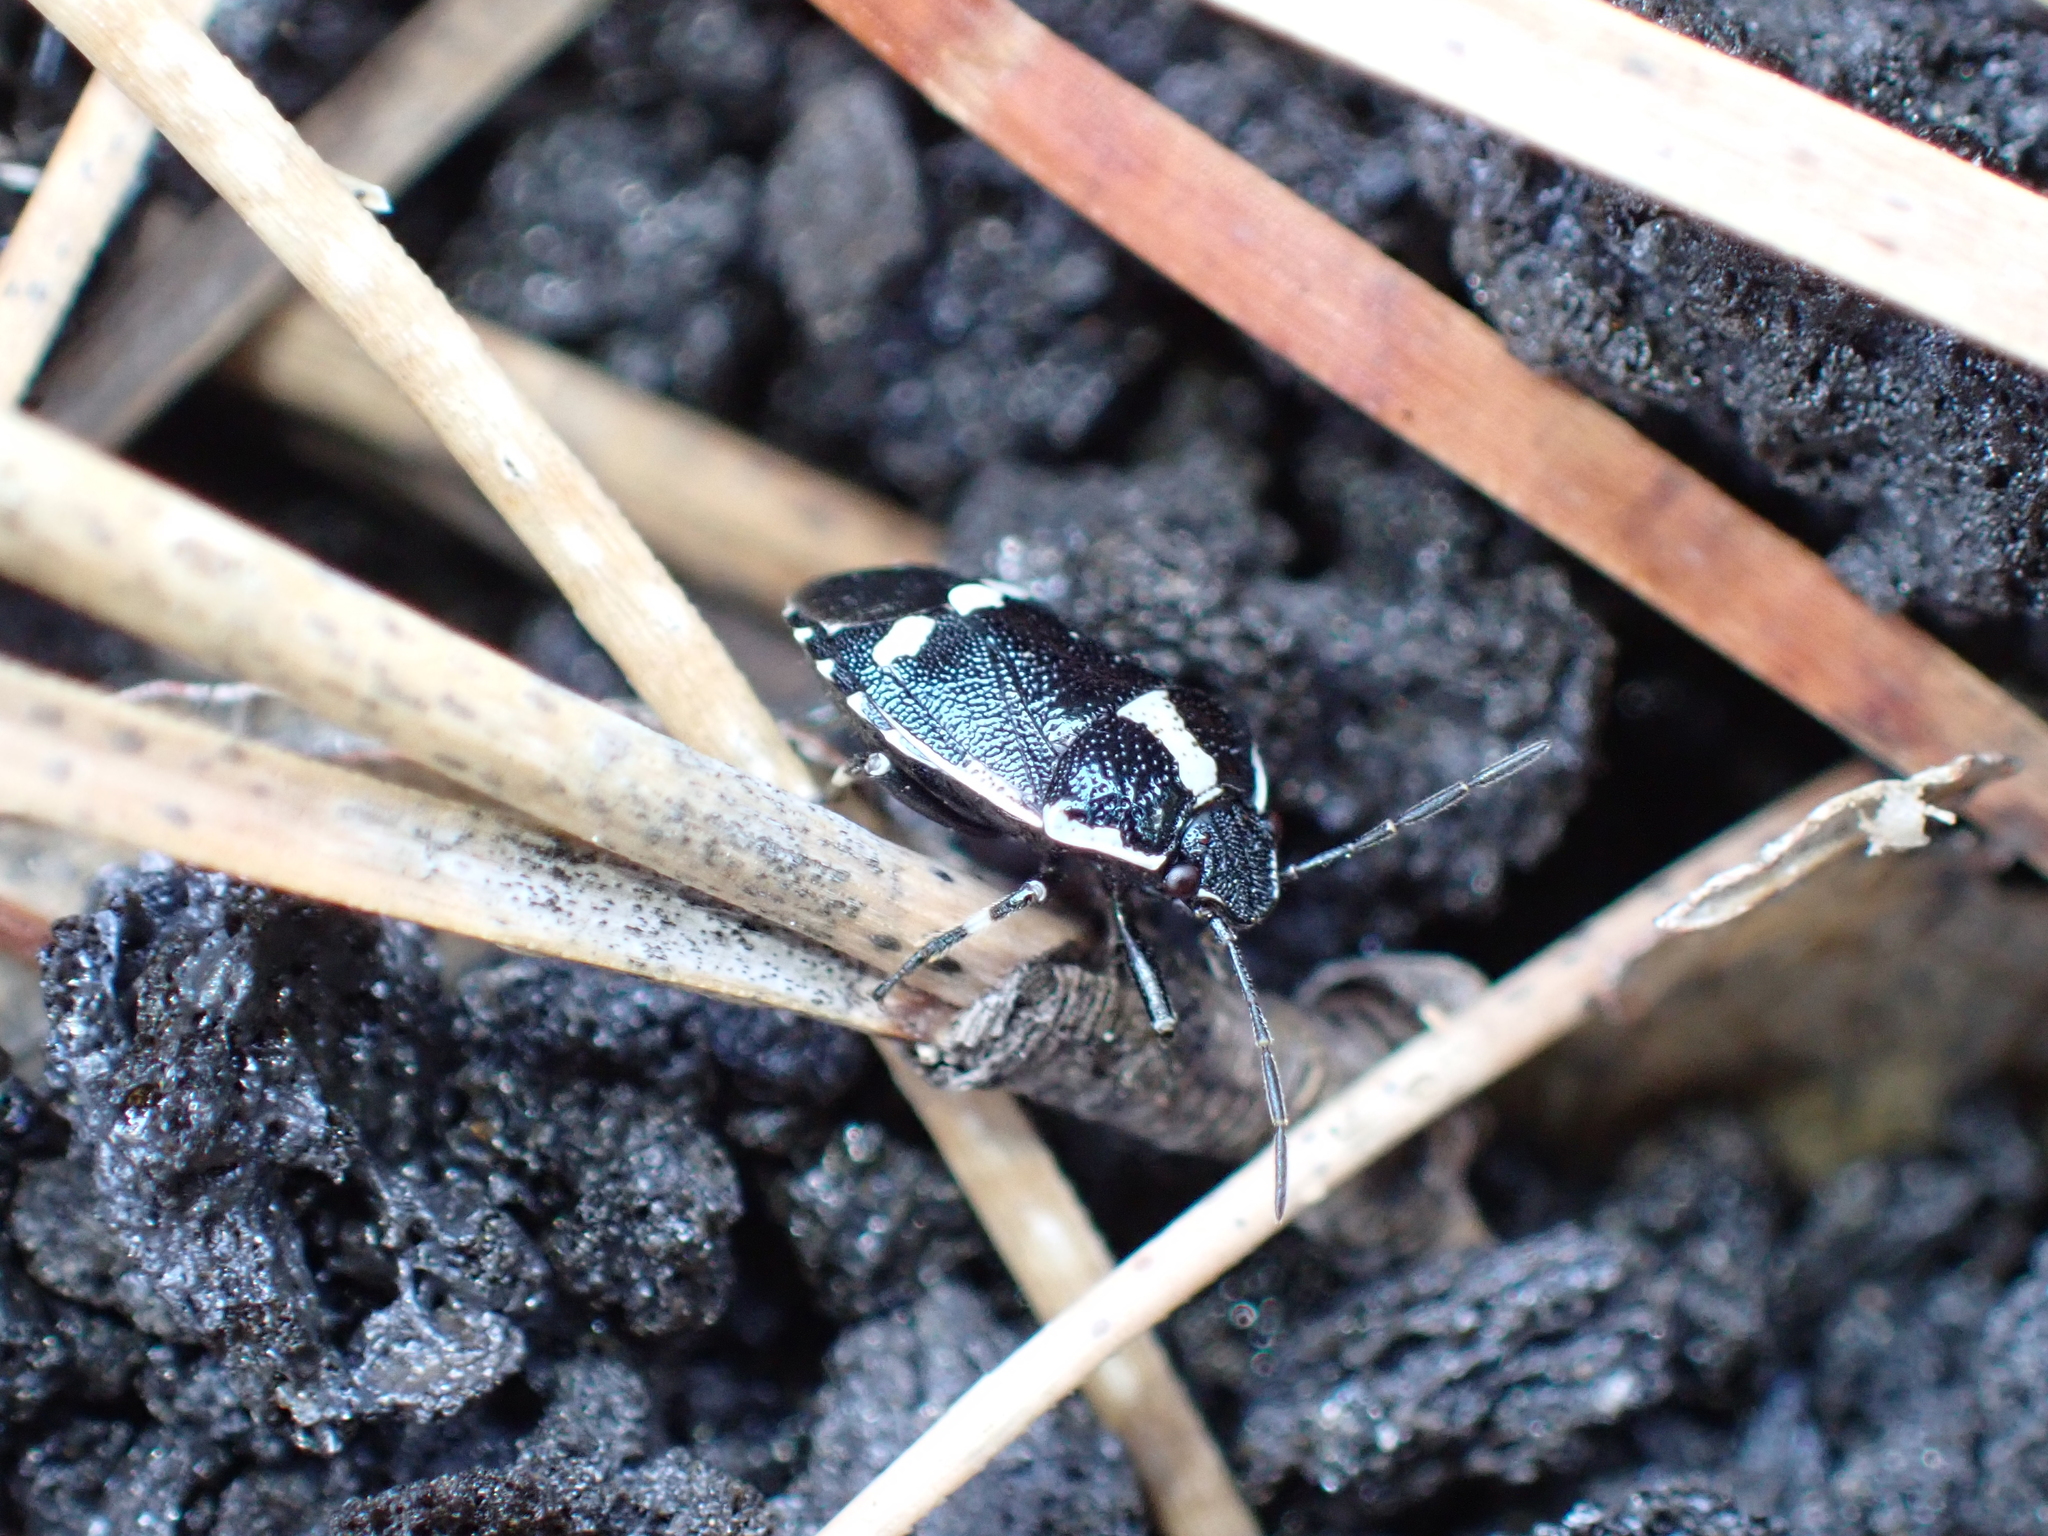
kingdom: Animalia
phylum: Arthropoda
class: Insecta
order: Hemiptera
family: Pentatomidae
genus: Eurydema
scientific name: Eurydema oleracea
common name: Cabbage bug
